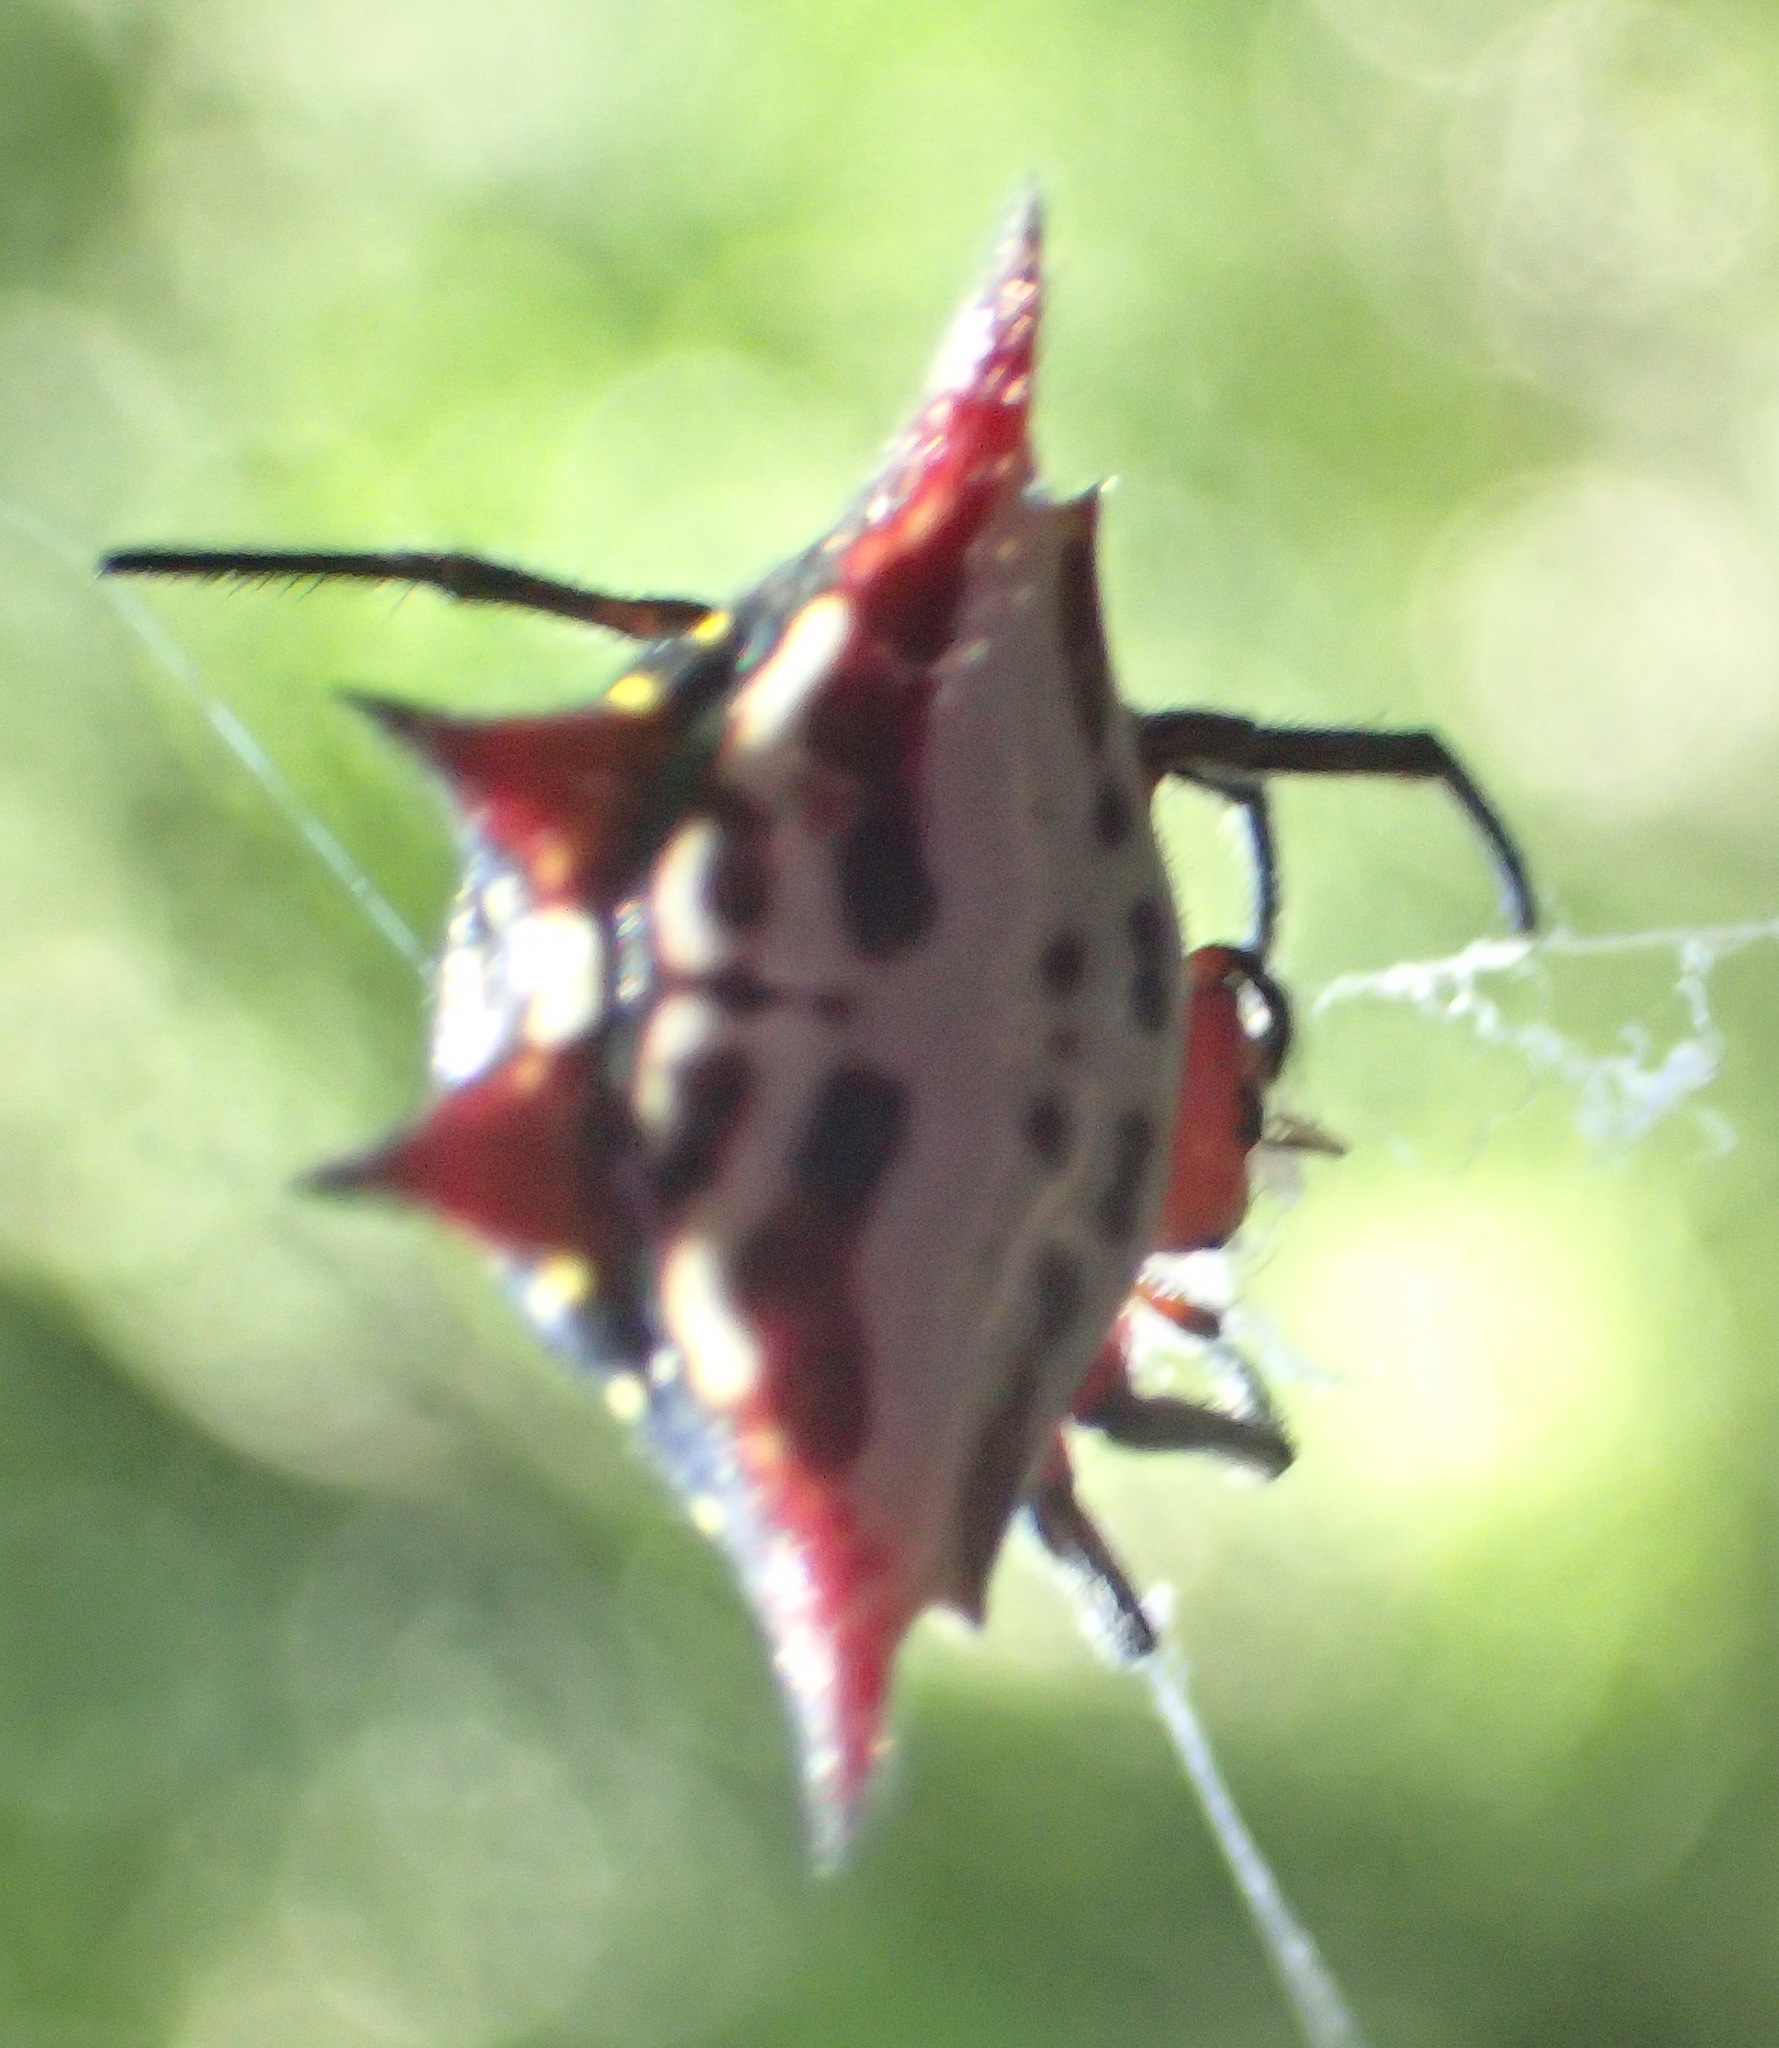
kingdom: Animalia
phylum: Arthropoda
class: Arachnida
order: Araneae
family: Araneidae
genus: Gasteracantha
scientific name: Gasteracantha sanguinolenta
